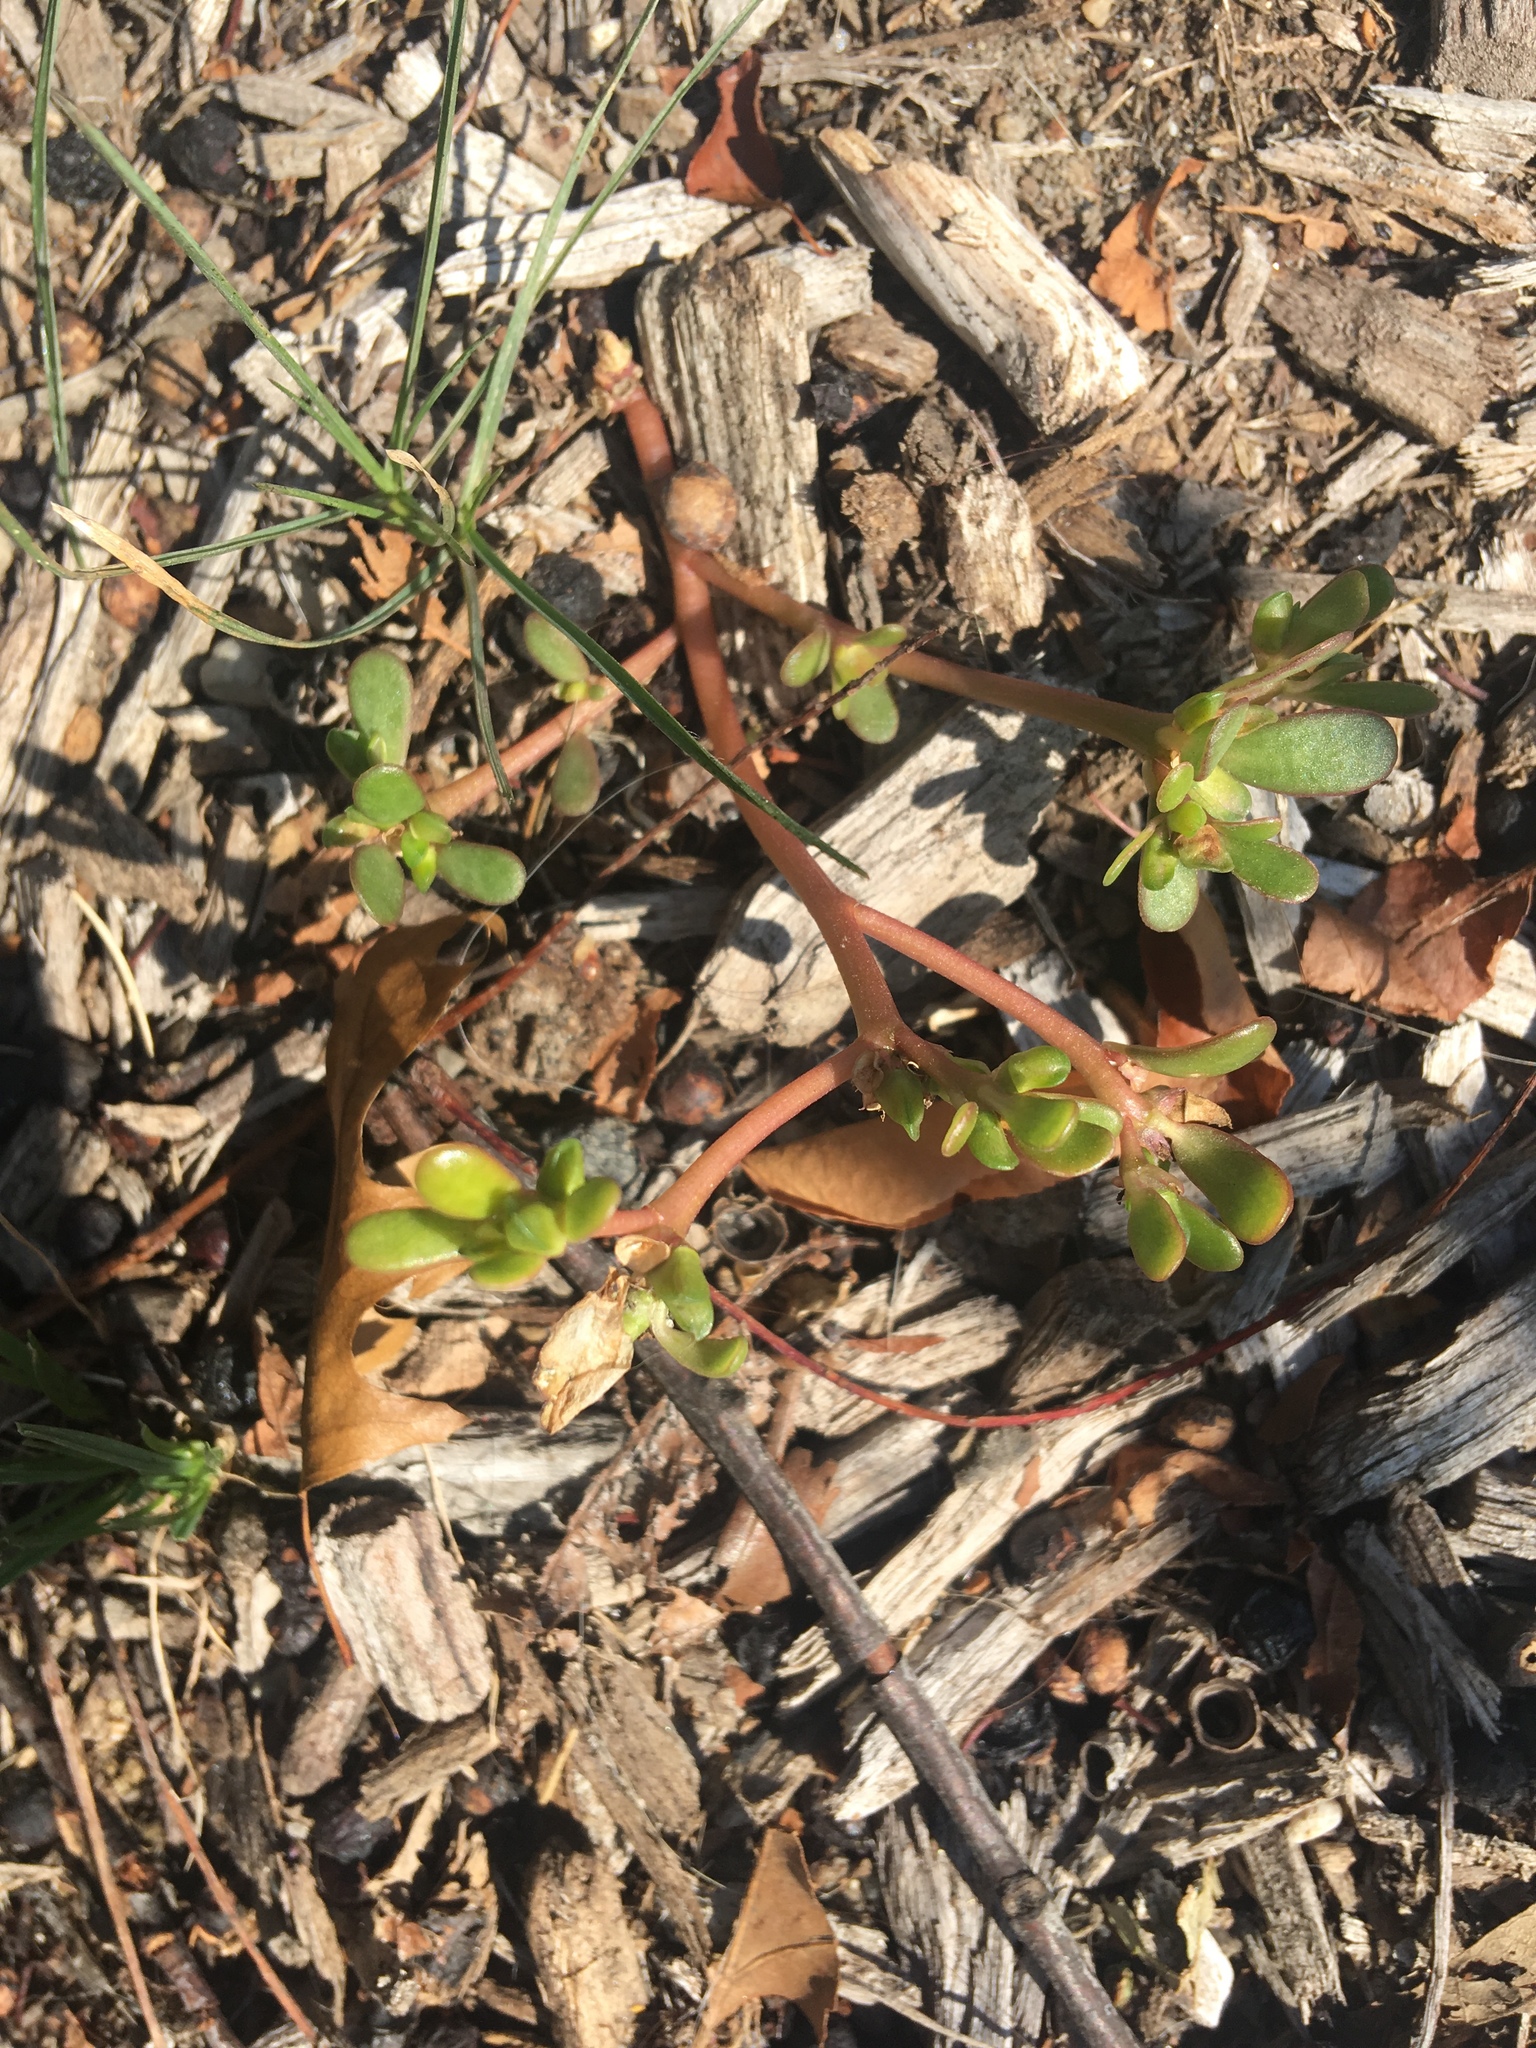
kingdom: Plantae
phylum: Tracheophyta
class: Magnoliopsida
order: Caryophyllales
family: Portulacaceae
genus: Portulaca
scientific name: Portulaca oleracea
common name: Common purslane
